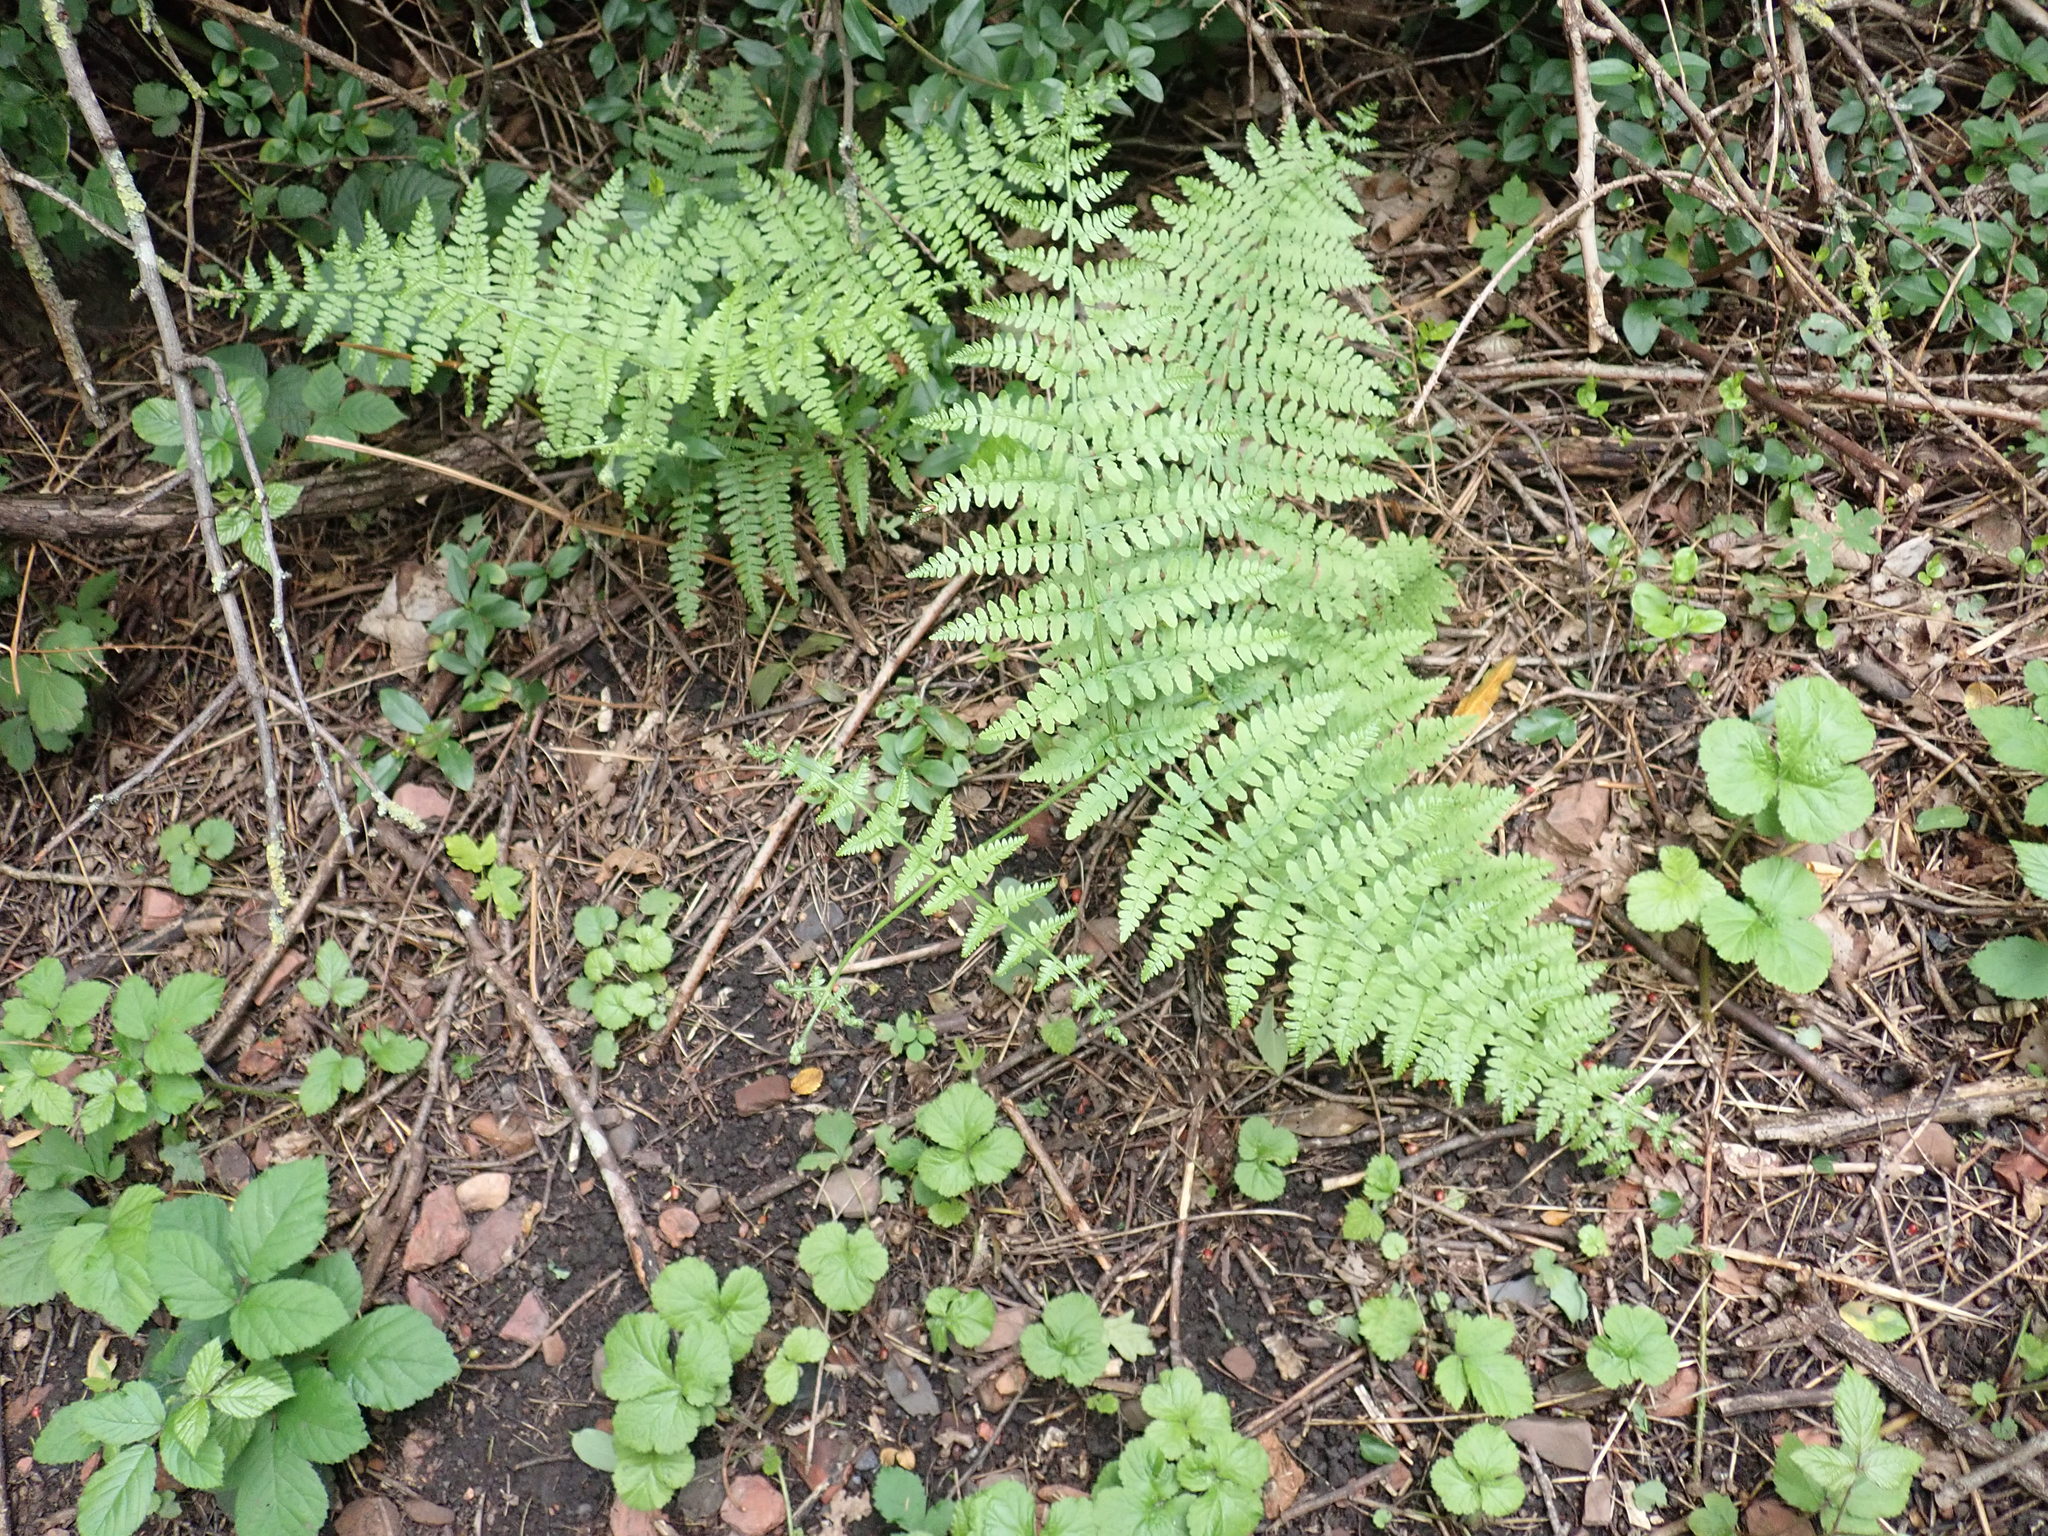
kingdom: Plantae
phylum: Tracheophyta
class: Polypodiopsida
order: Polypodiales
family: Dennstaedtiaceae
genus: Pteridium
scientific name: Pteridium aquilinum
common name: Bracken
